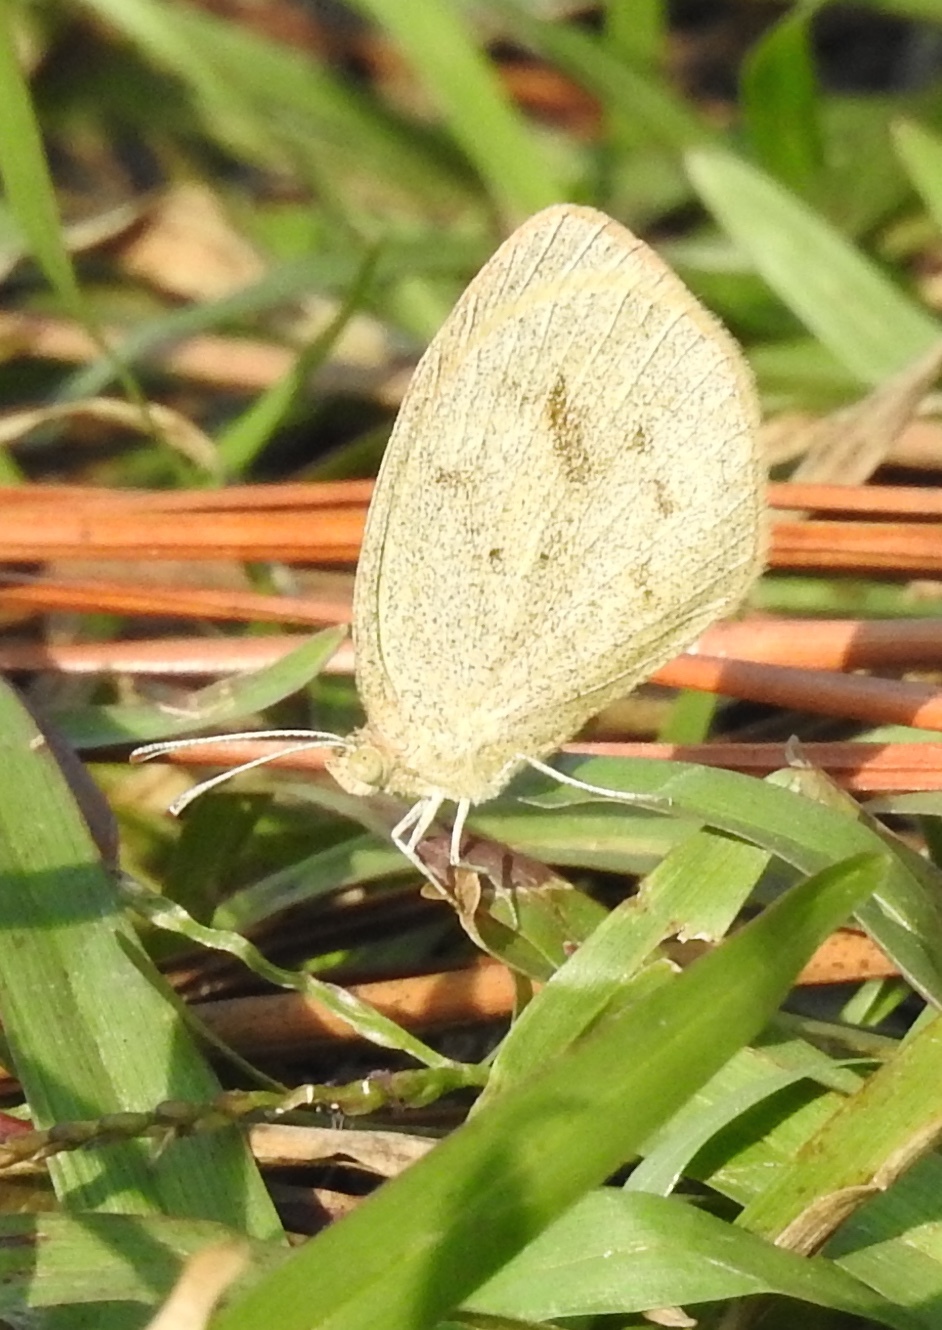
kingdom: Animalia
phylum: Arthropoda
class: Insecta
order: Lepidoptera
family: Pieridae
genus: Eurema
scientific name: Eurema daira
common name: Barred sulphur
